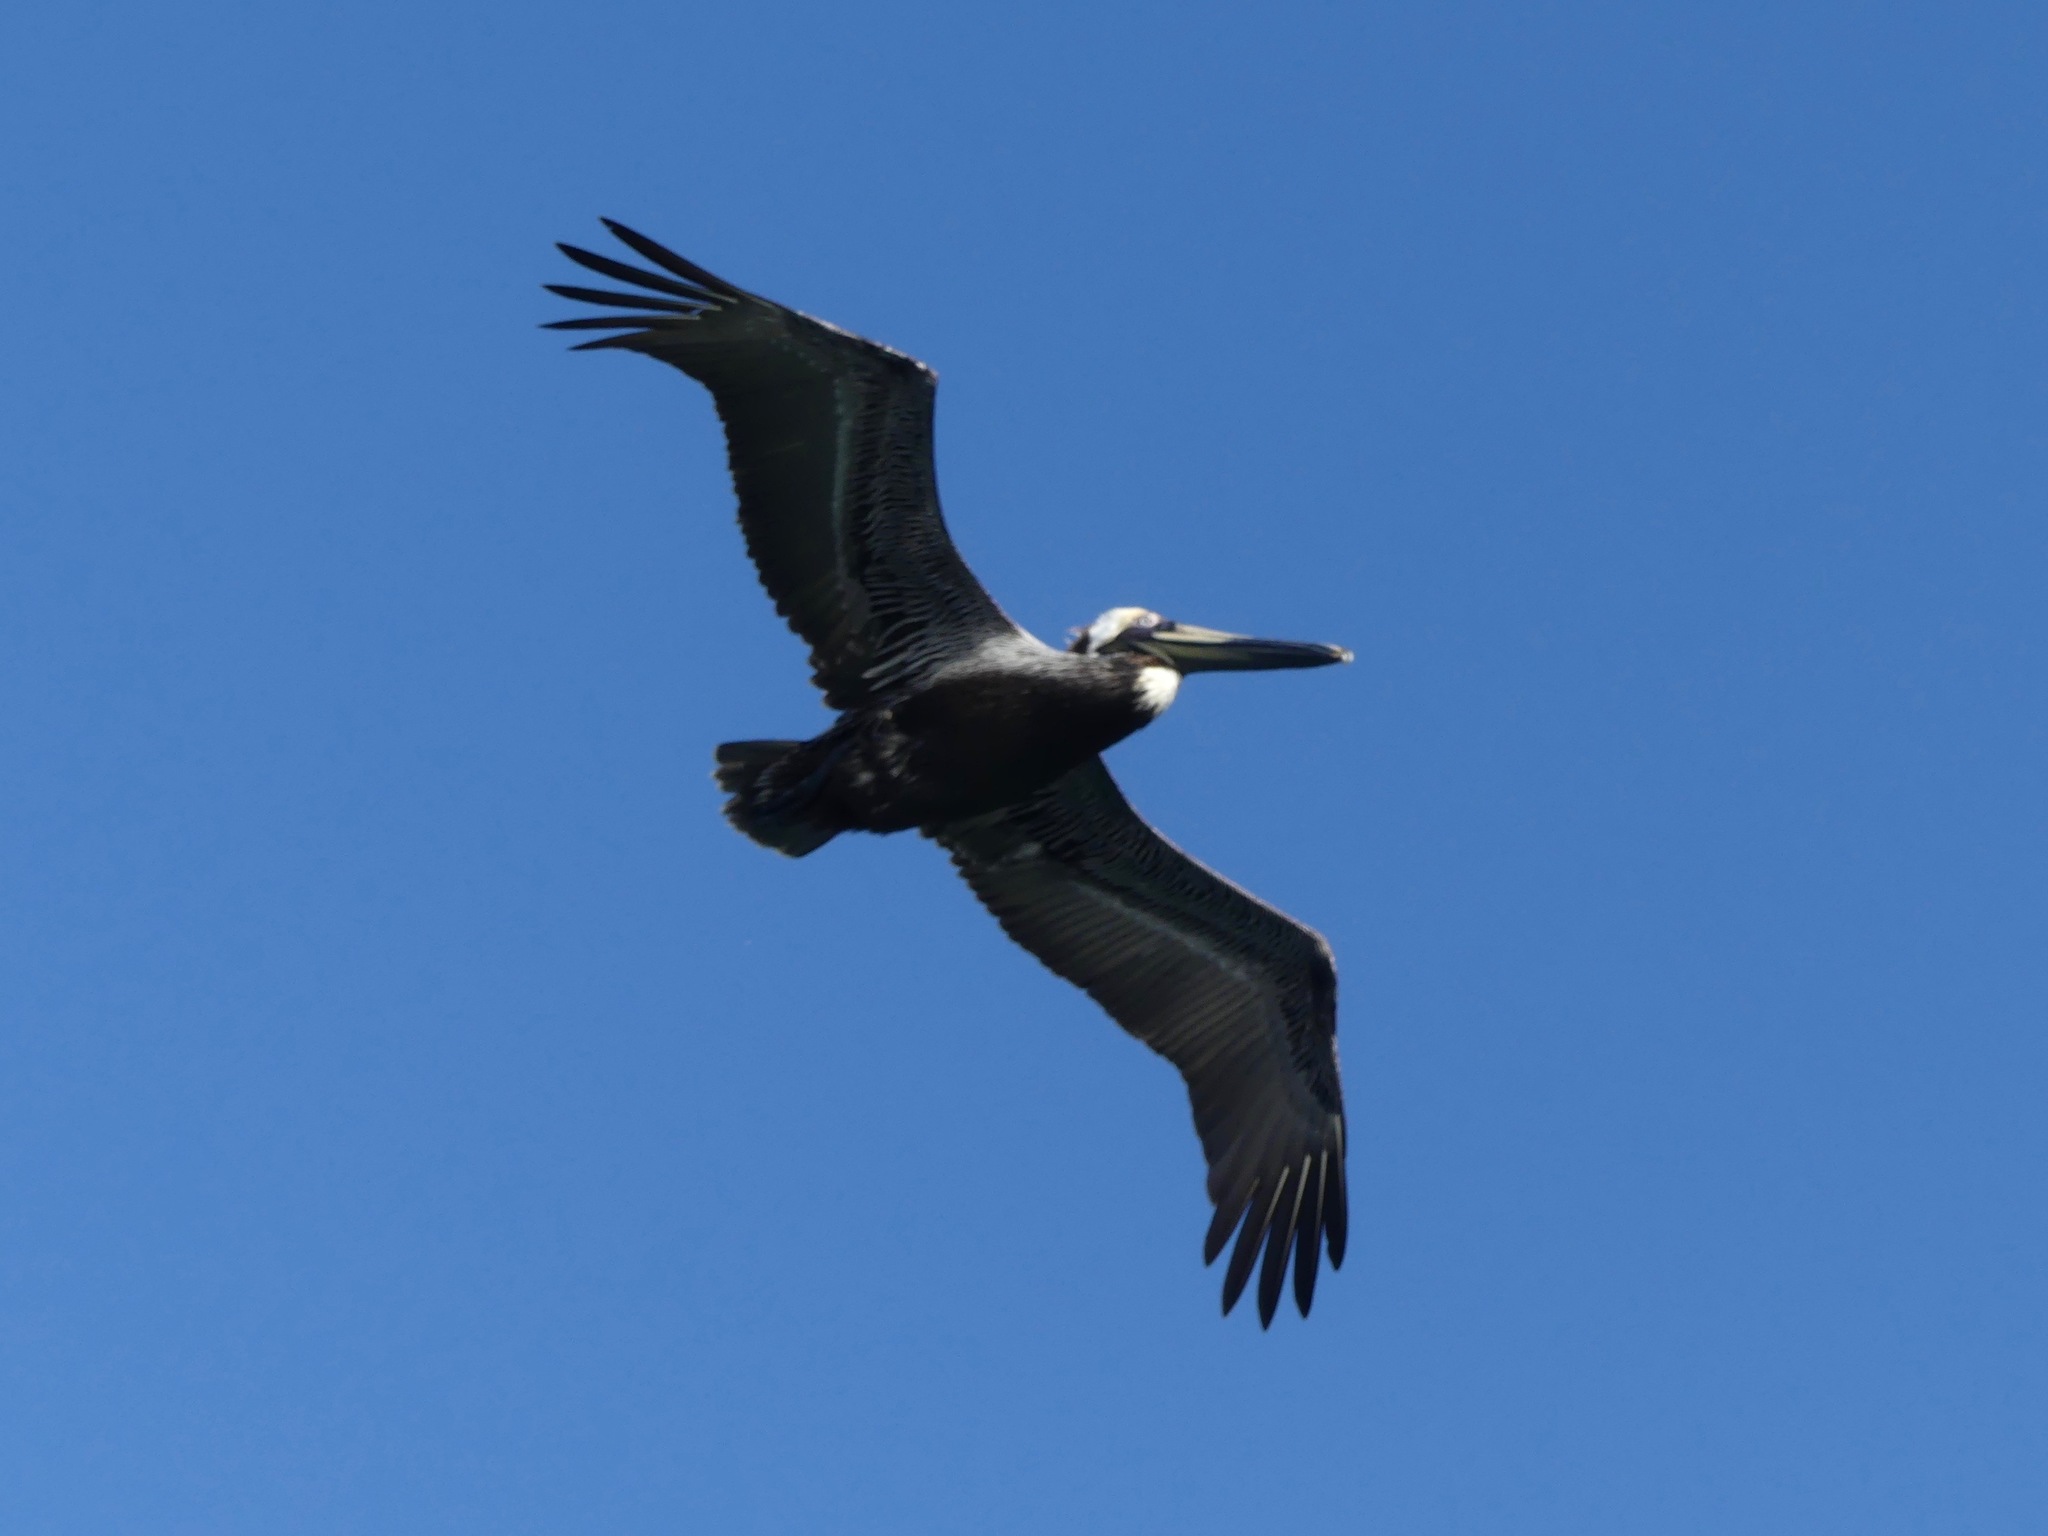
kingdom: Animalia
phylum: Chordata
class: Aves
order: Pelecaniformes
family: Pelecanidae
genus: Pelecanus
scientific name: Pelecanus occidentalis
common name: Brown pelican
